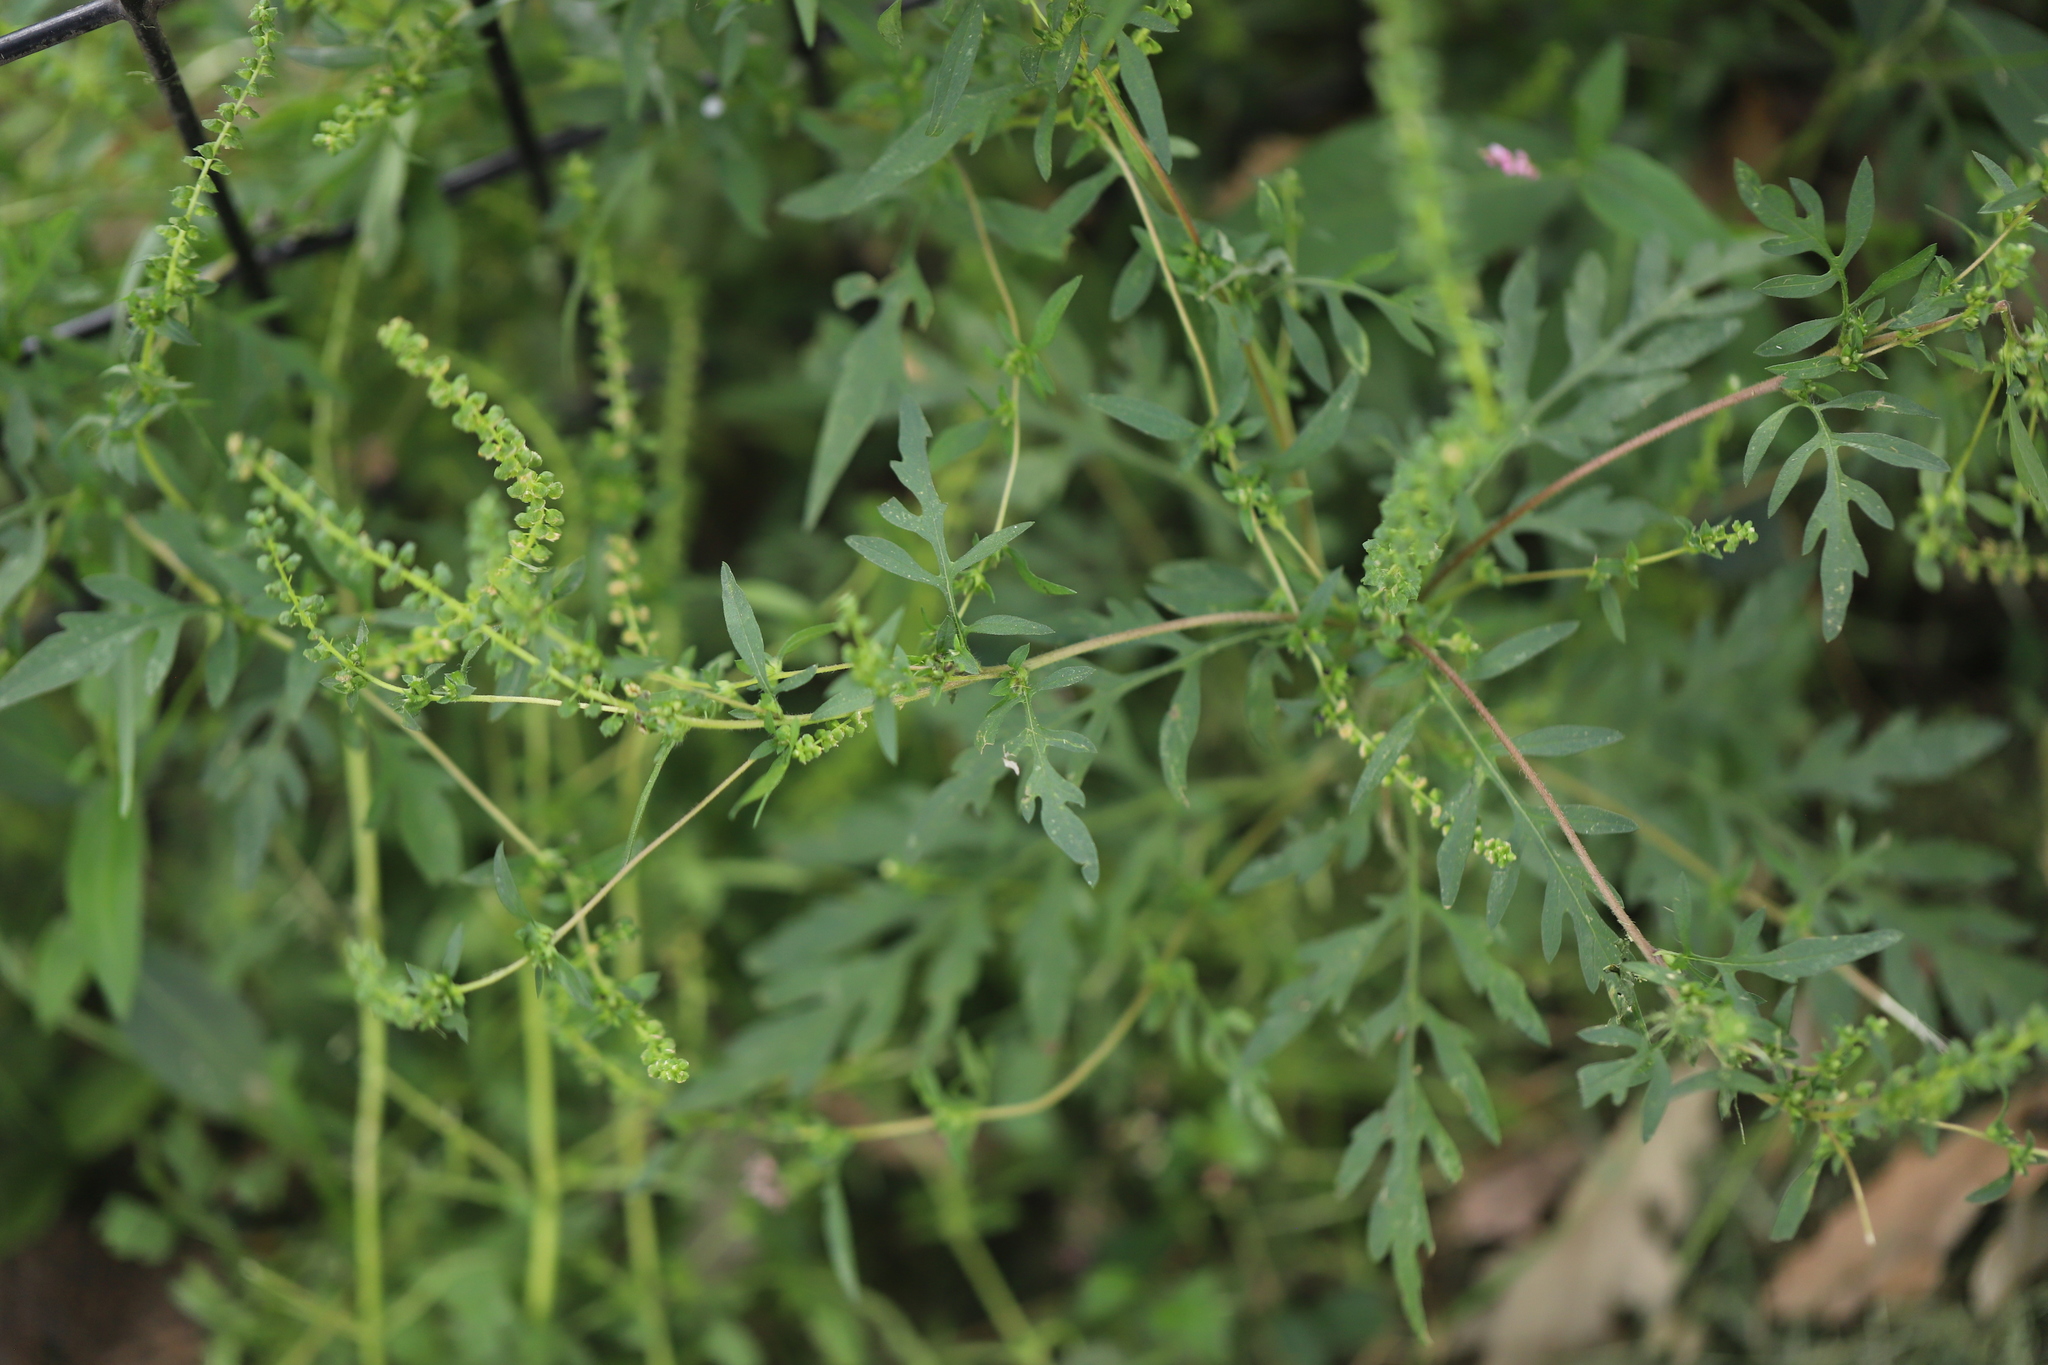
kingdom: Plantae
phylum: Tracheophyta
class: Magnoliopsida
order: Asterales
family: Asteraceae
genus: Ambrosia
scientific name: Ambrosia artemisiifolia
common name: Annual ragweed
